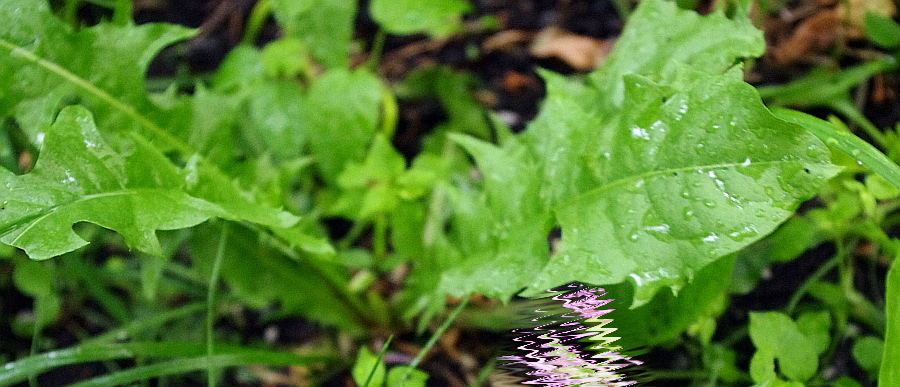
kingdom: Plantae
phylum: Tracheophyta
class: Magnoliopsida
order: Asterales
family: Asteraceae
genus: Taraxacum
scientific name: Taraxacum officinale
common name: Common dandelion
